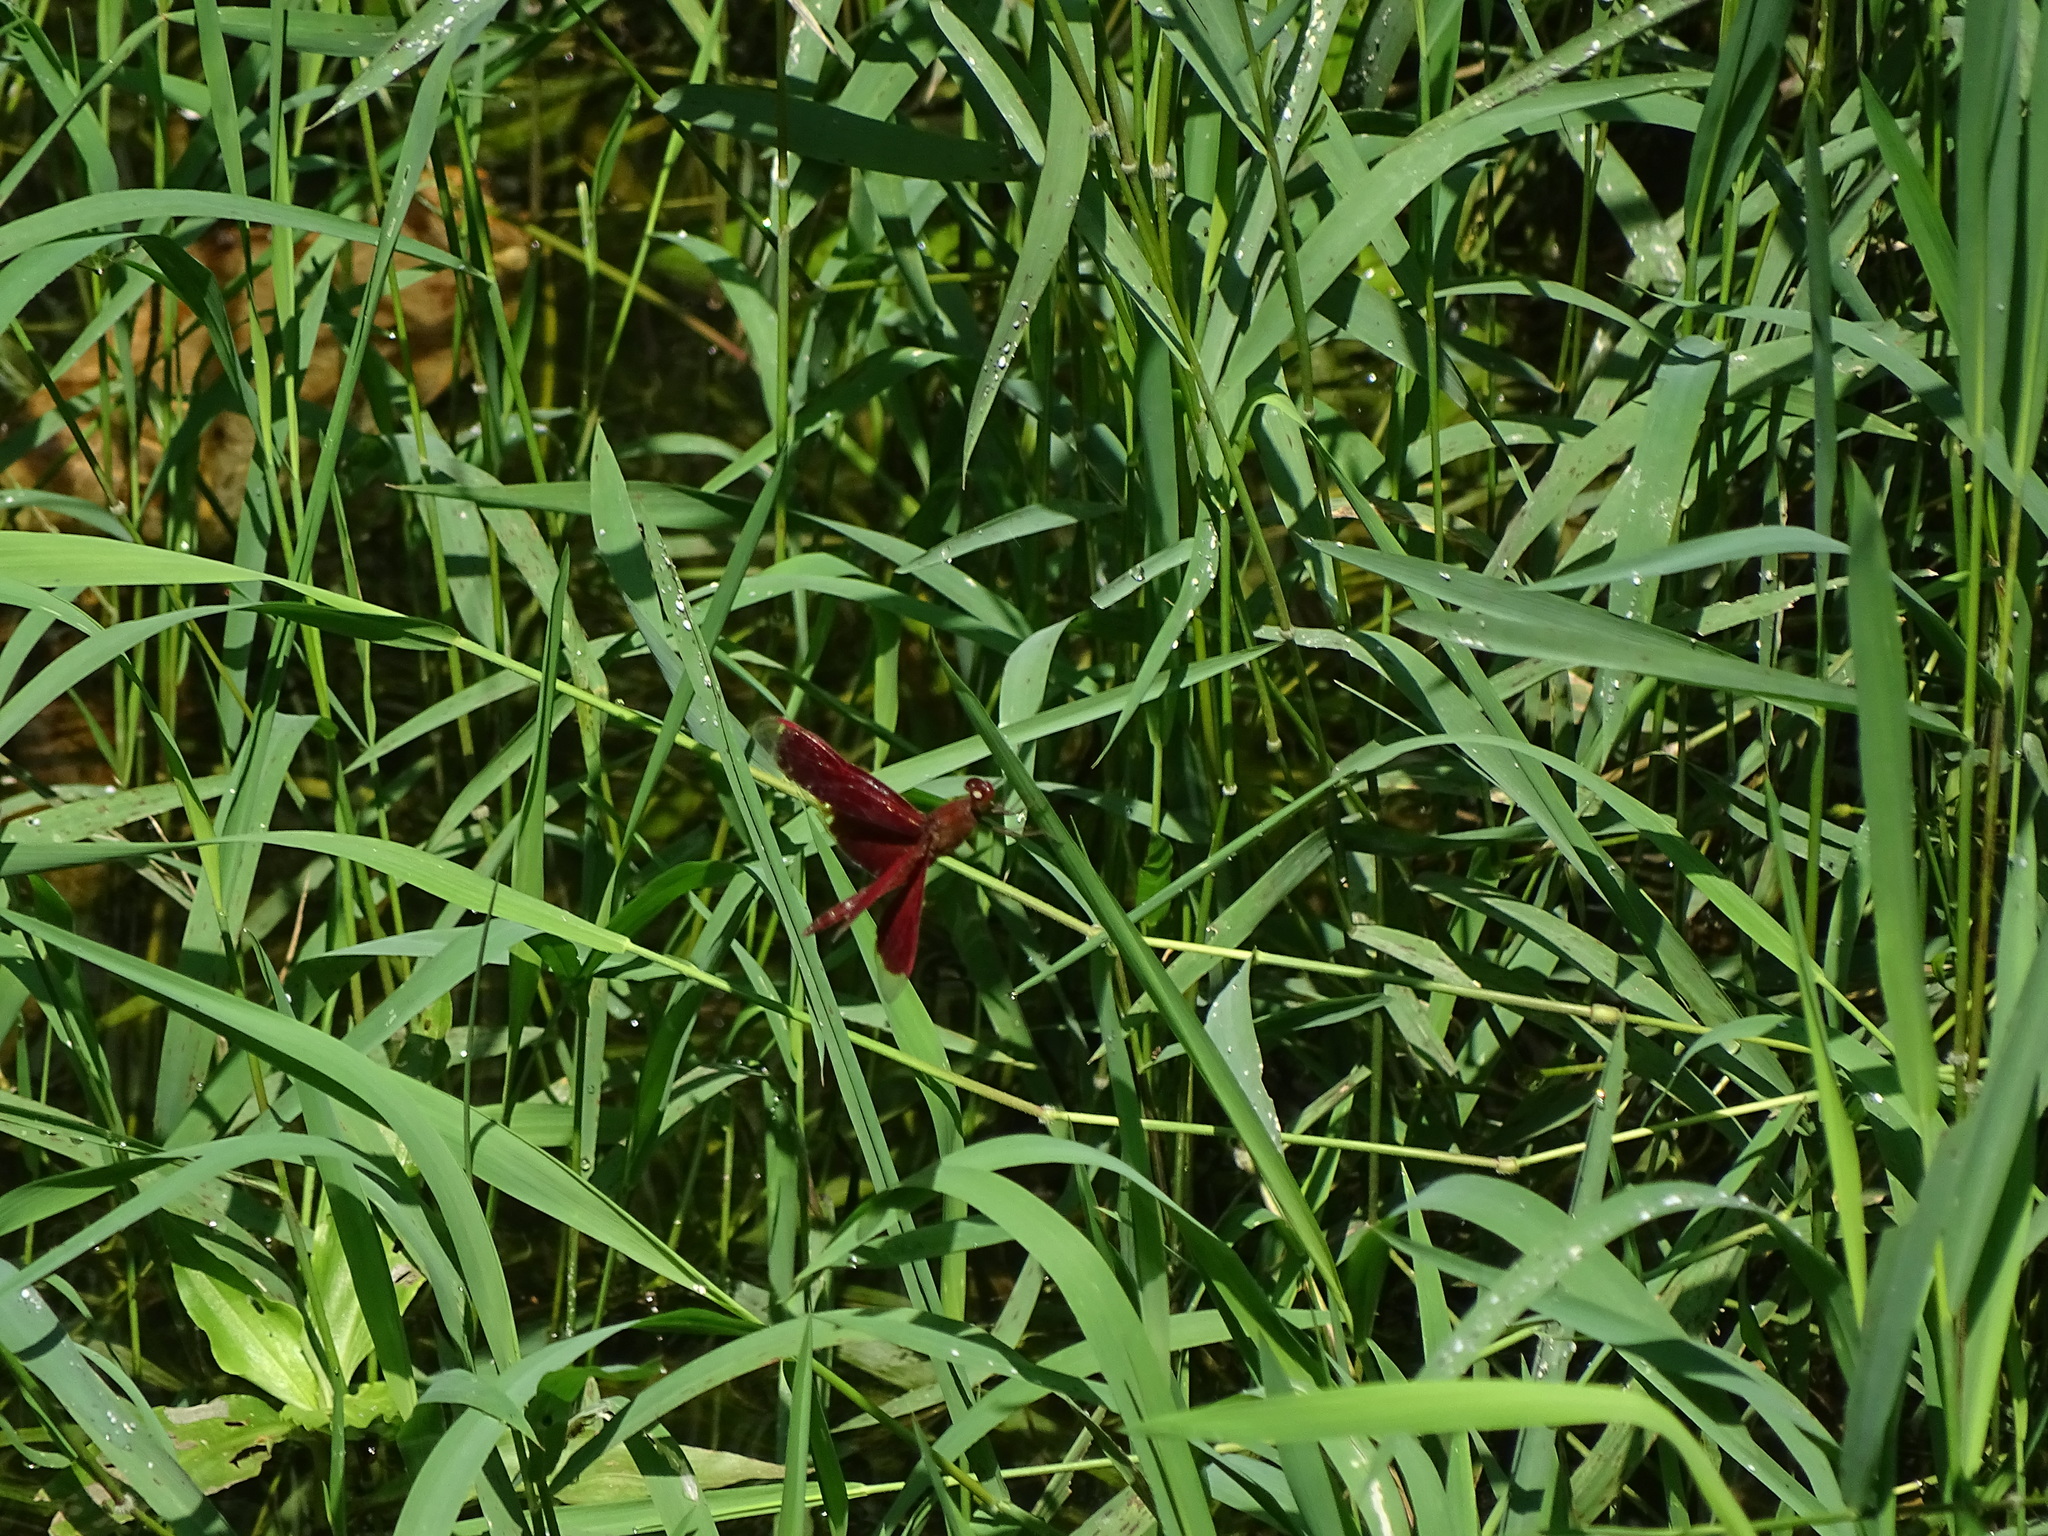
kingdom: Animalia
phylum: Arthropoda
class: Insecta
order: Odonata
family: Libellulidae
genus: Neurothemis
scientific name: Neurothemis ramburii
